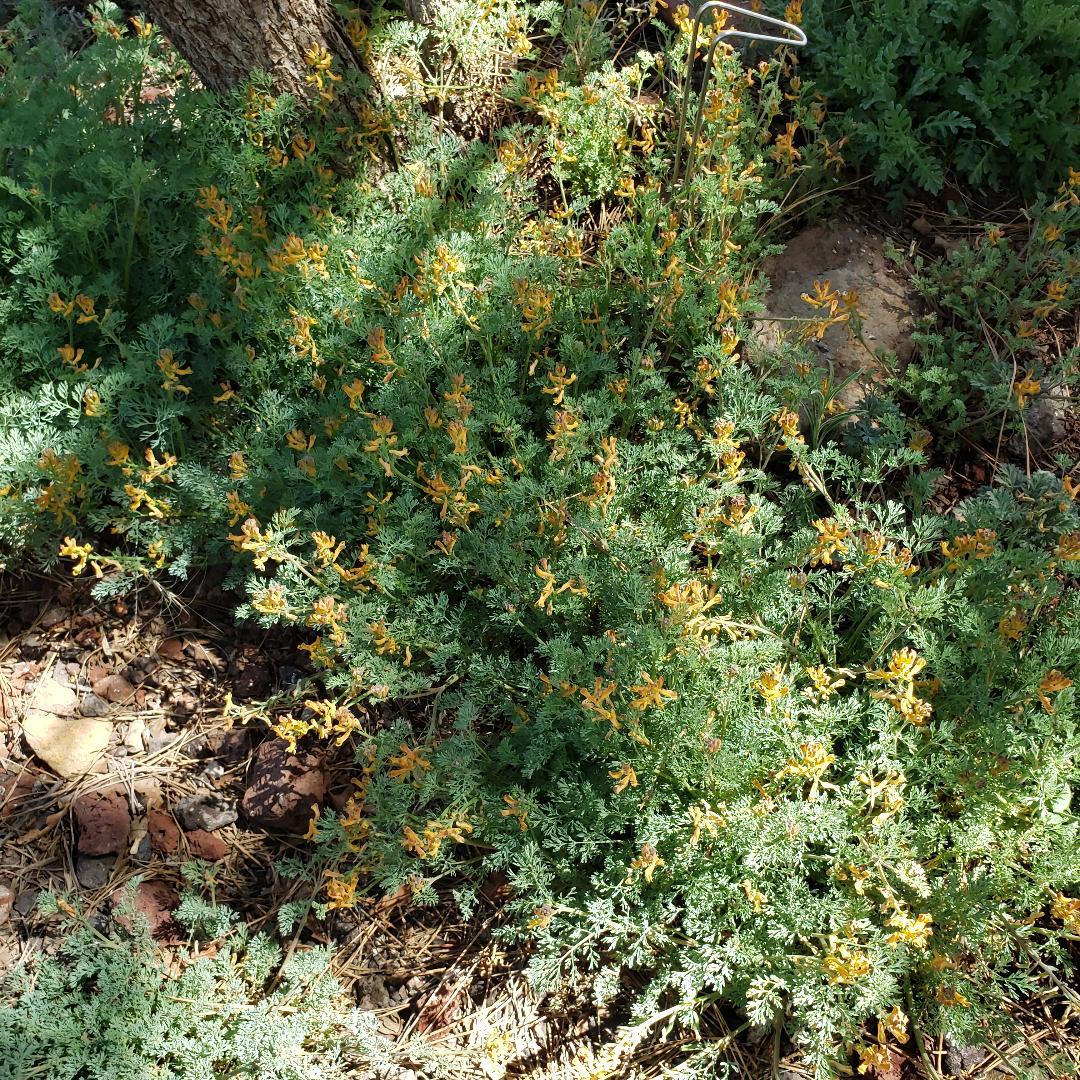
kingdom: Plantae
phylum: Tracheophyta
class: Magnoliopsida
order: Ranunculales
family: Papaveraceae
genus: Corydalis
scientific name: Corydalis aurea
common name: Golden corydalis
